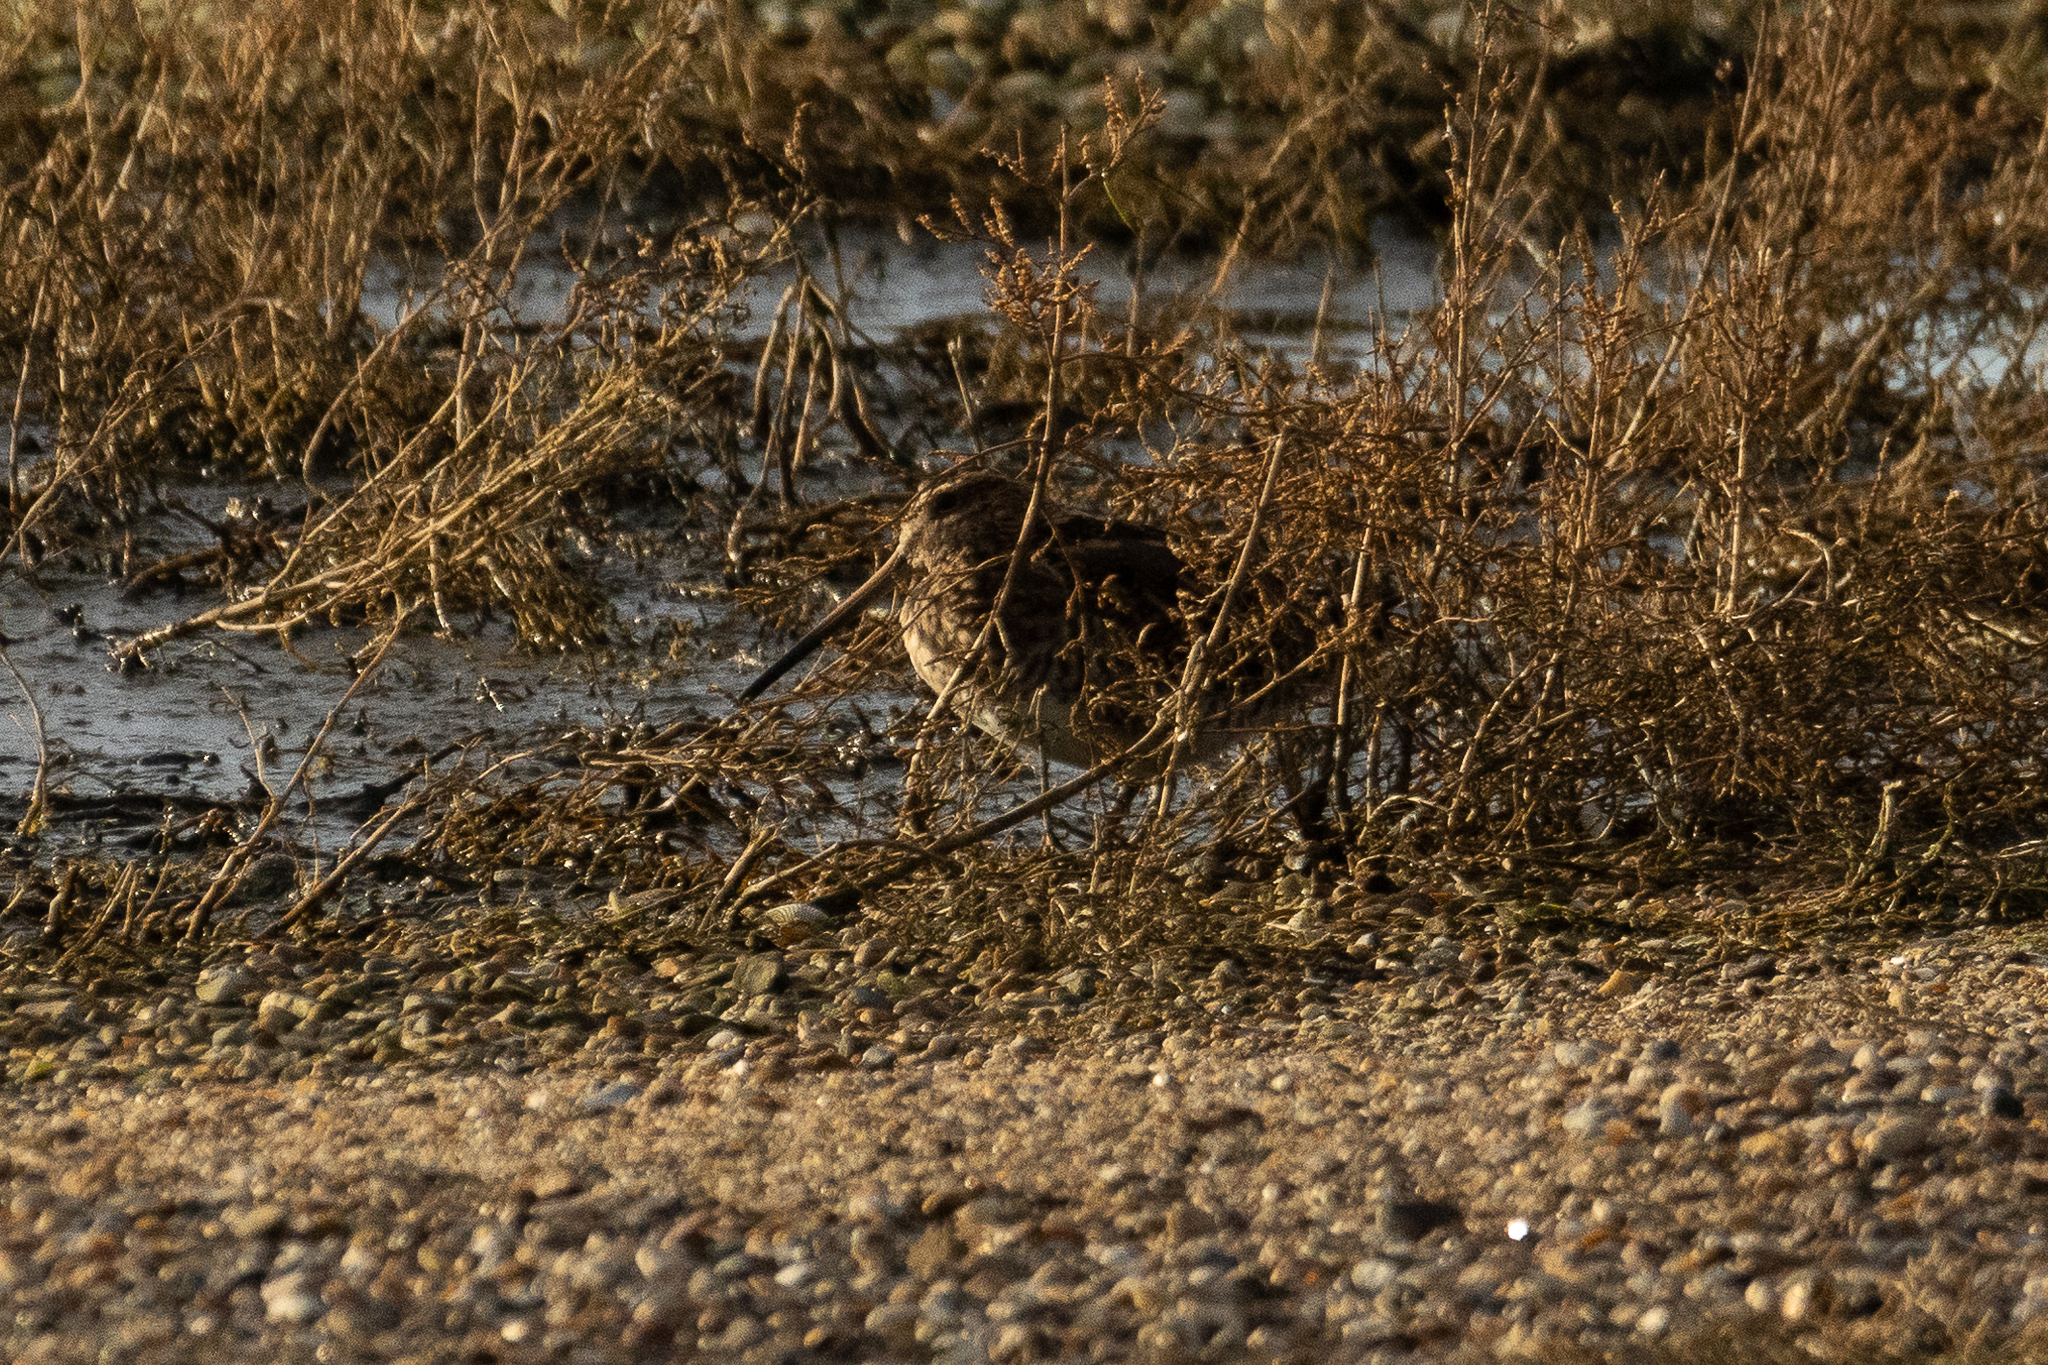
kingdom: Animalia
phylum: Chordata
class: Aves
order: Charadriiformes
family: Scolopacidae
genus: Gallinago
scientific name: Gallinago gallinago
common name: Common snipe
